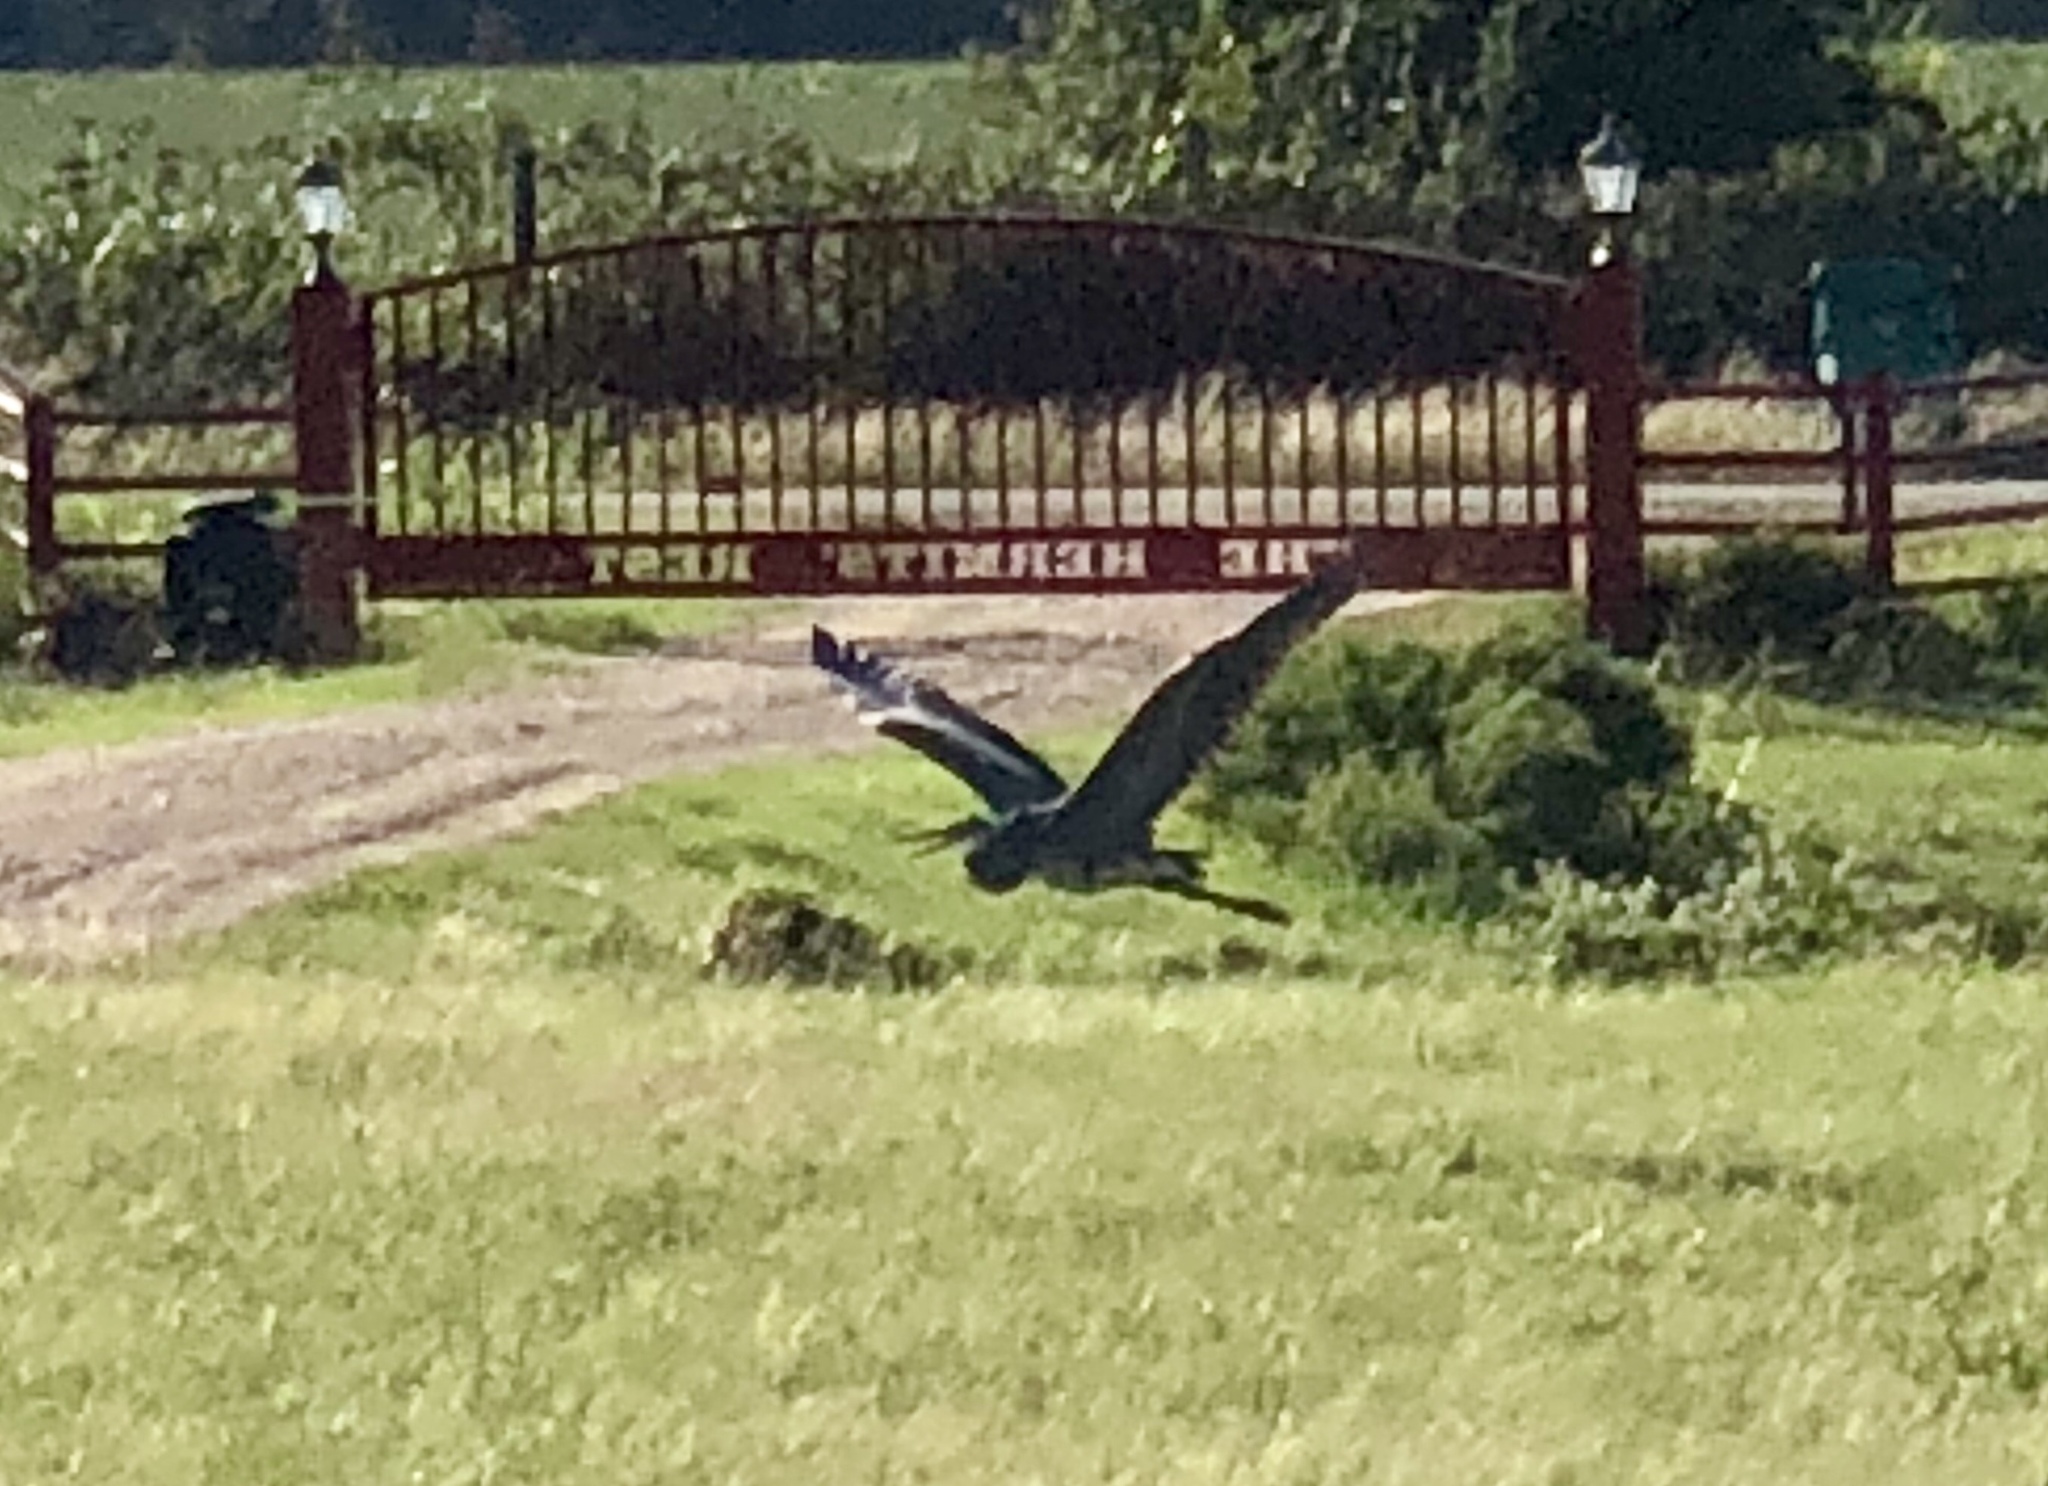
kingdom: Animalia
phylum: Chordata
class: Aves
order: Pelecaniformes
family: Ardeidae
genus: Ardea
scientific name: Ardea herodias
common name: Great blue heron
